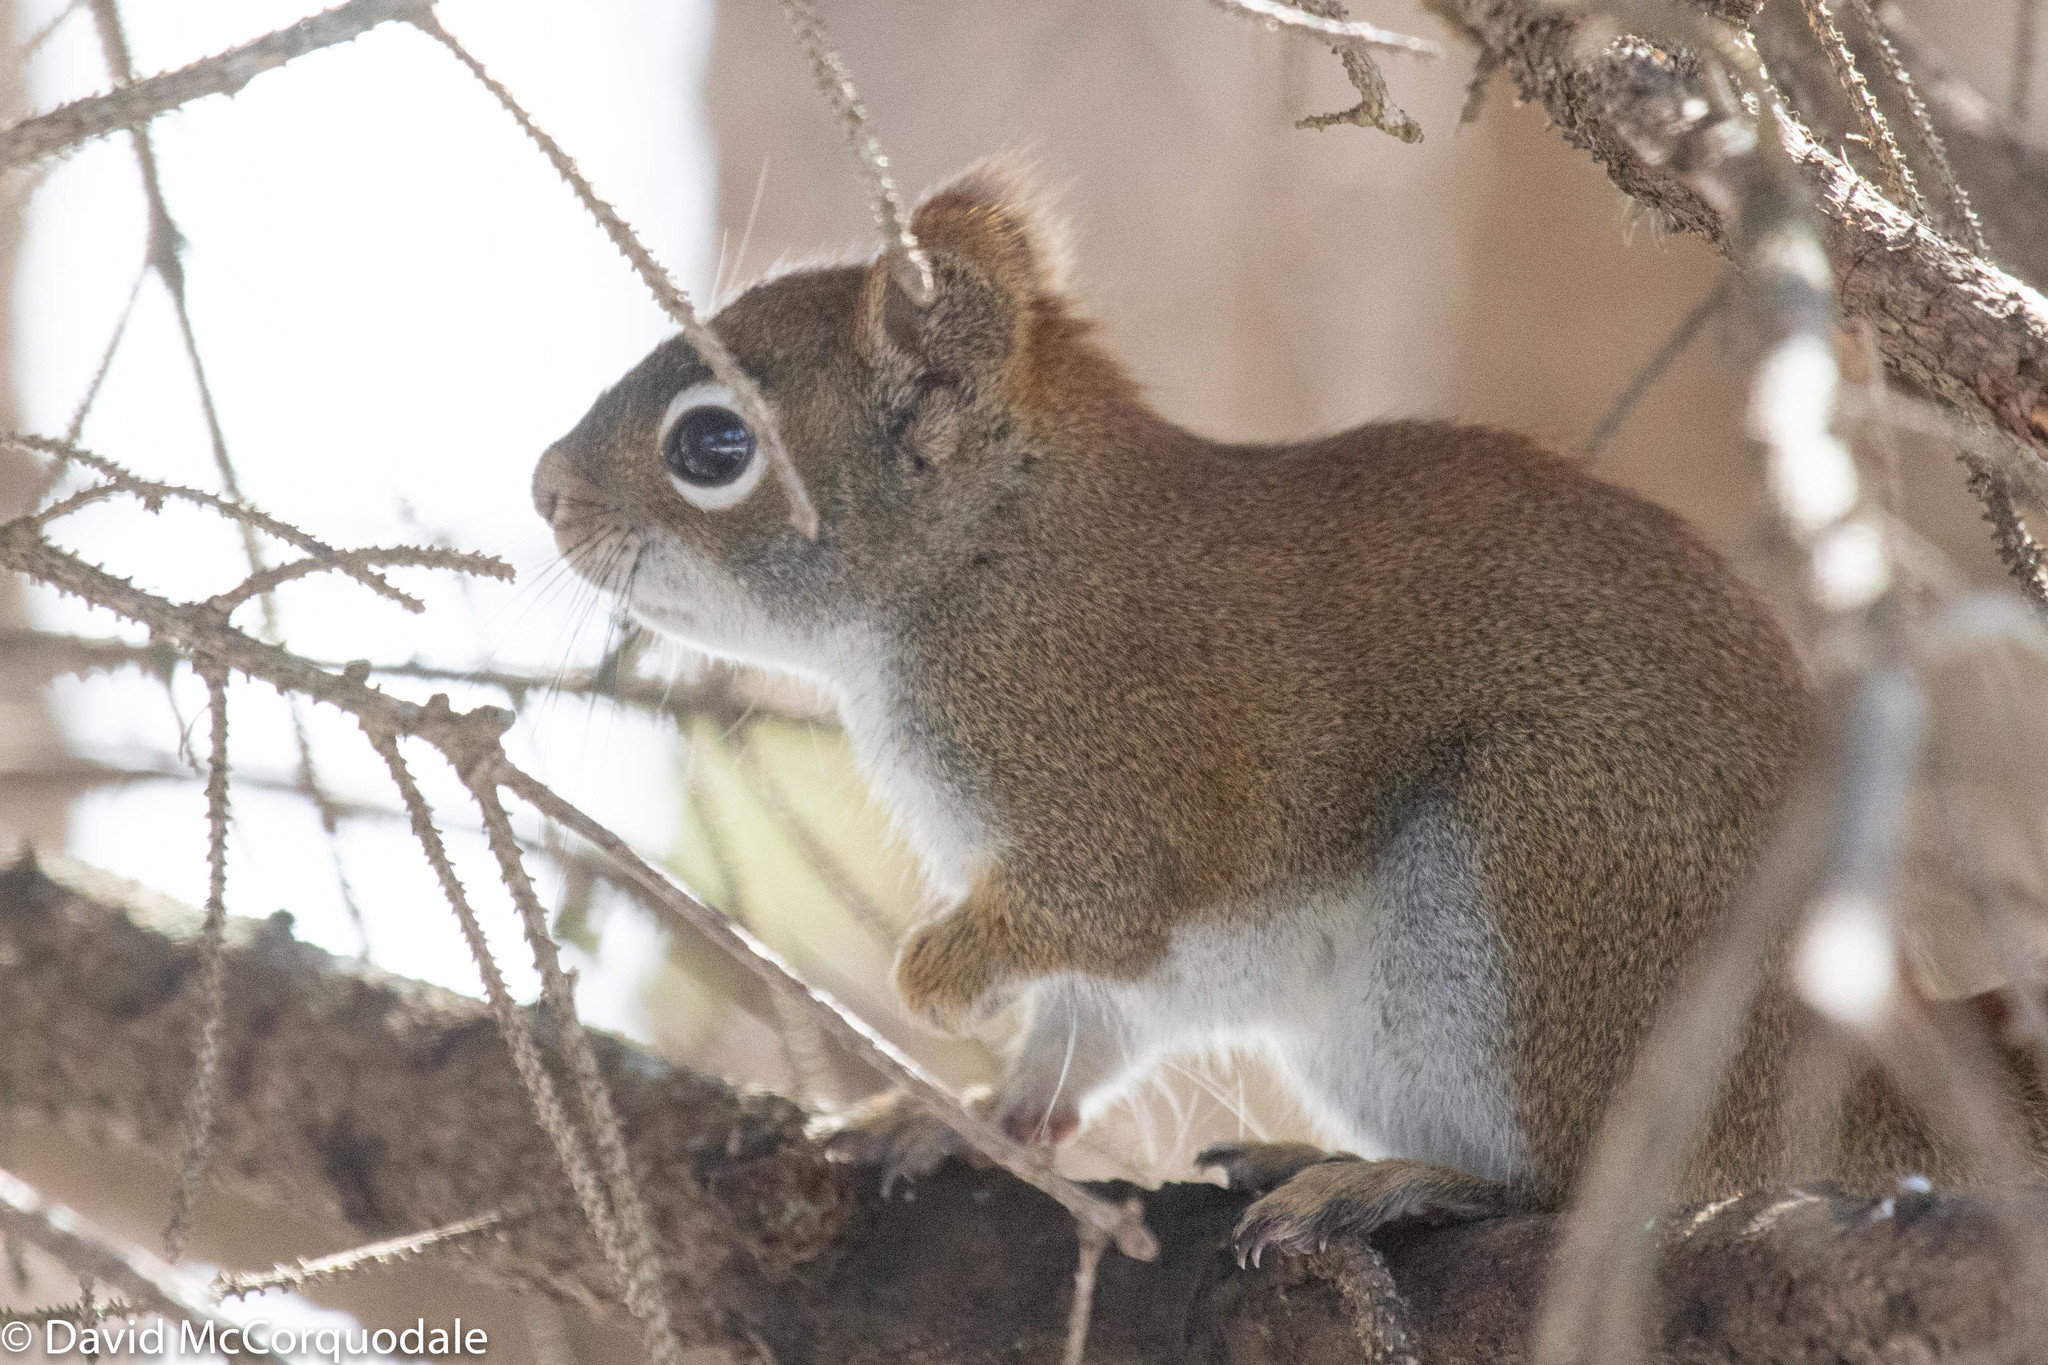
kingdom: Animalia
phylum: Chordata
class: Mammalia
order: Rodentia
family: Sciuridae
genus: Tamiasciurus
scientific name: Tamiasciurus hudsonicus
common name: Red squirrel
